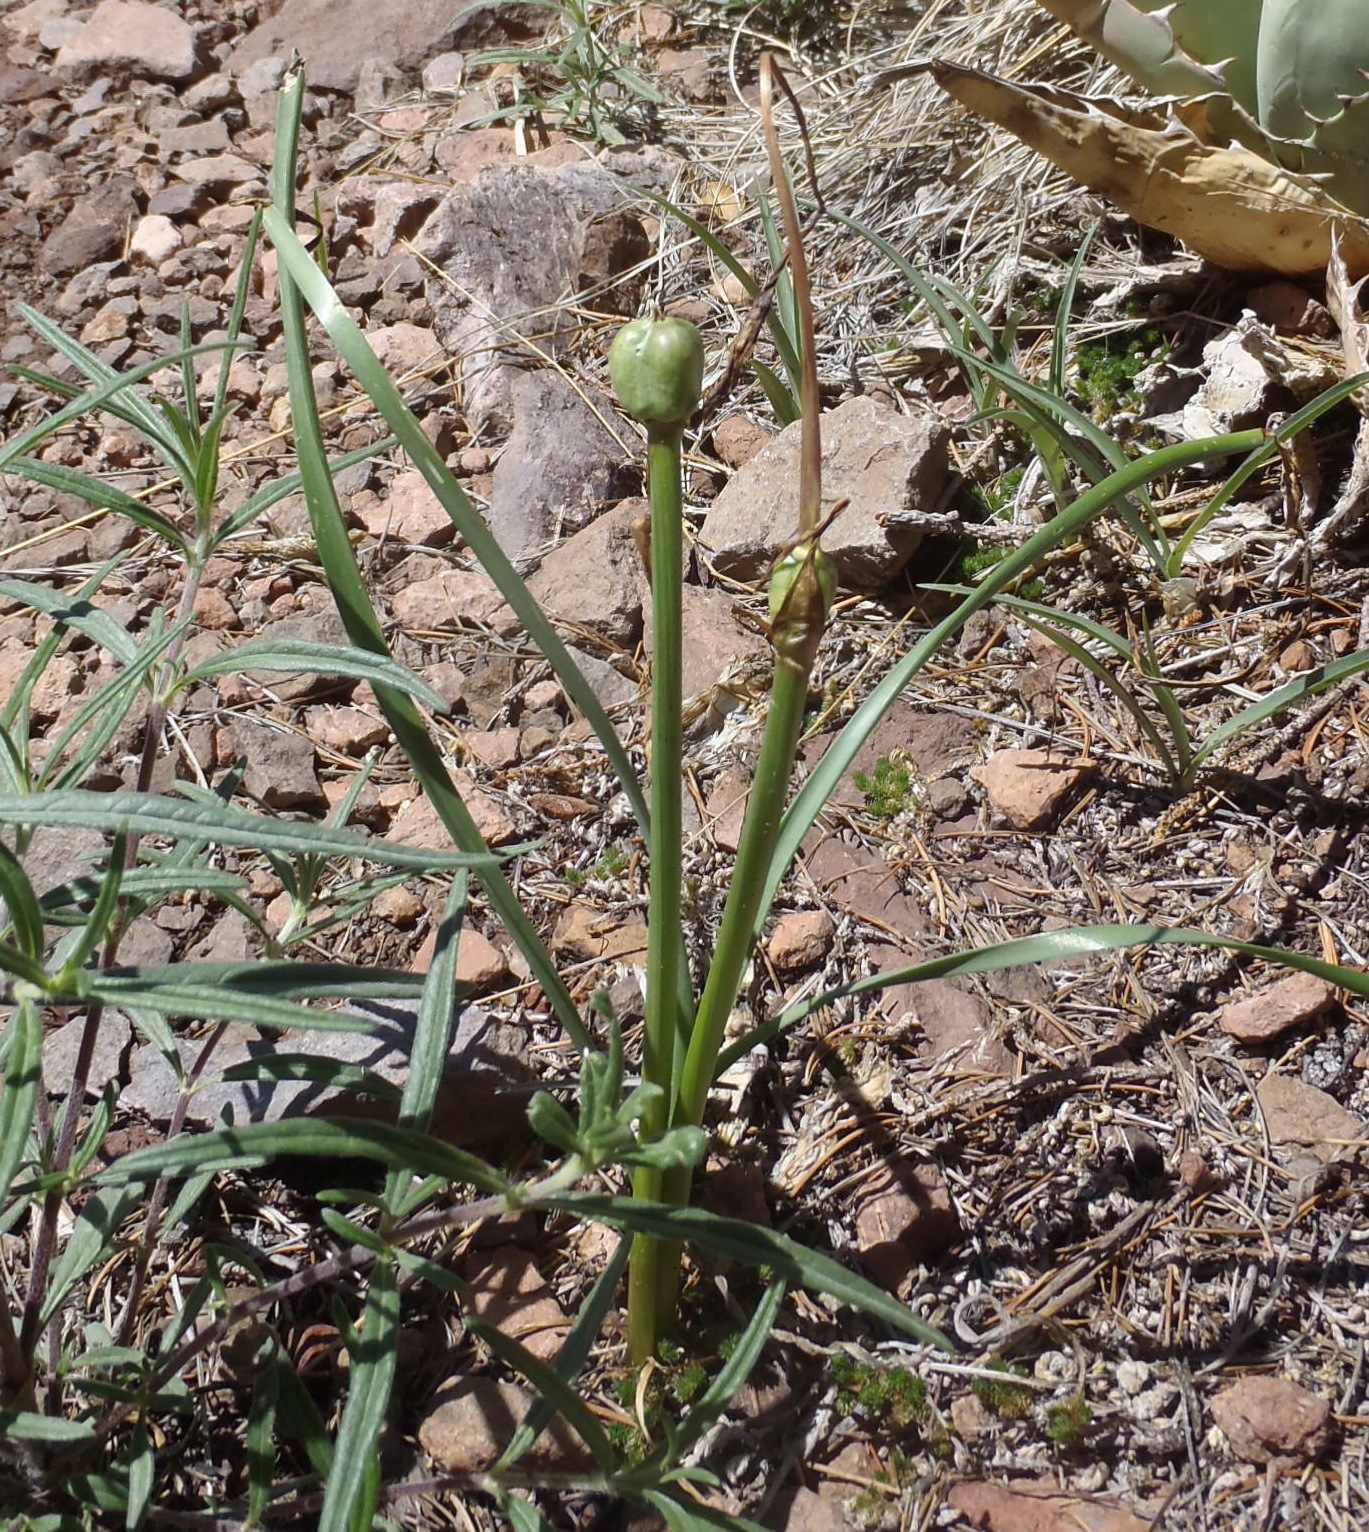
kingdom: Plantae
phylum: Tracheophyta
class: Liliopsida
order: Asparagales
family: Amaryllidaceae
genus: Zephyranthes
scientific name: Zephyranthes
